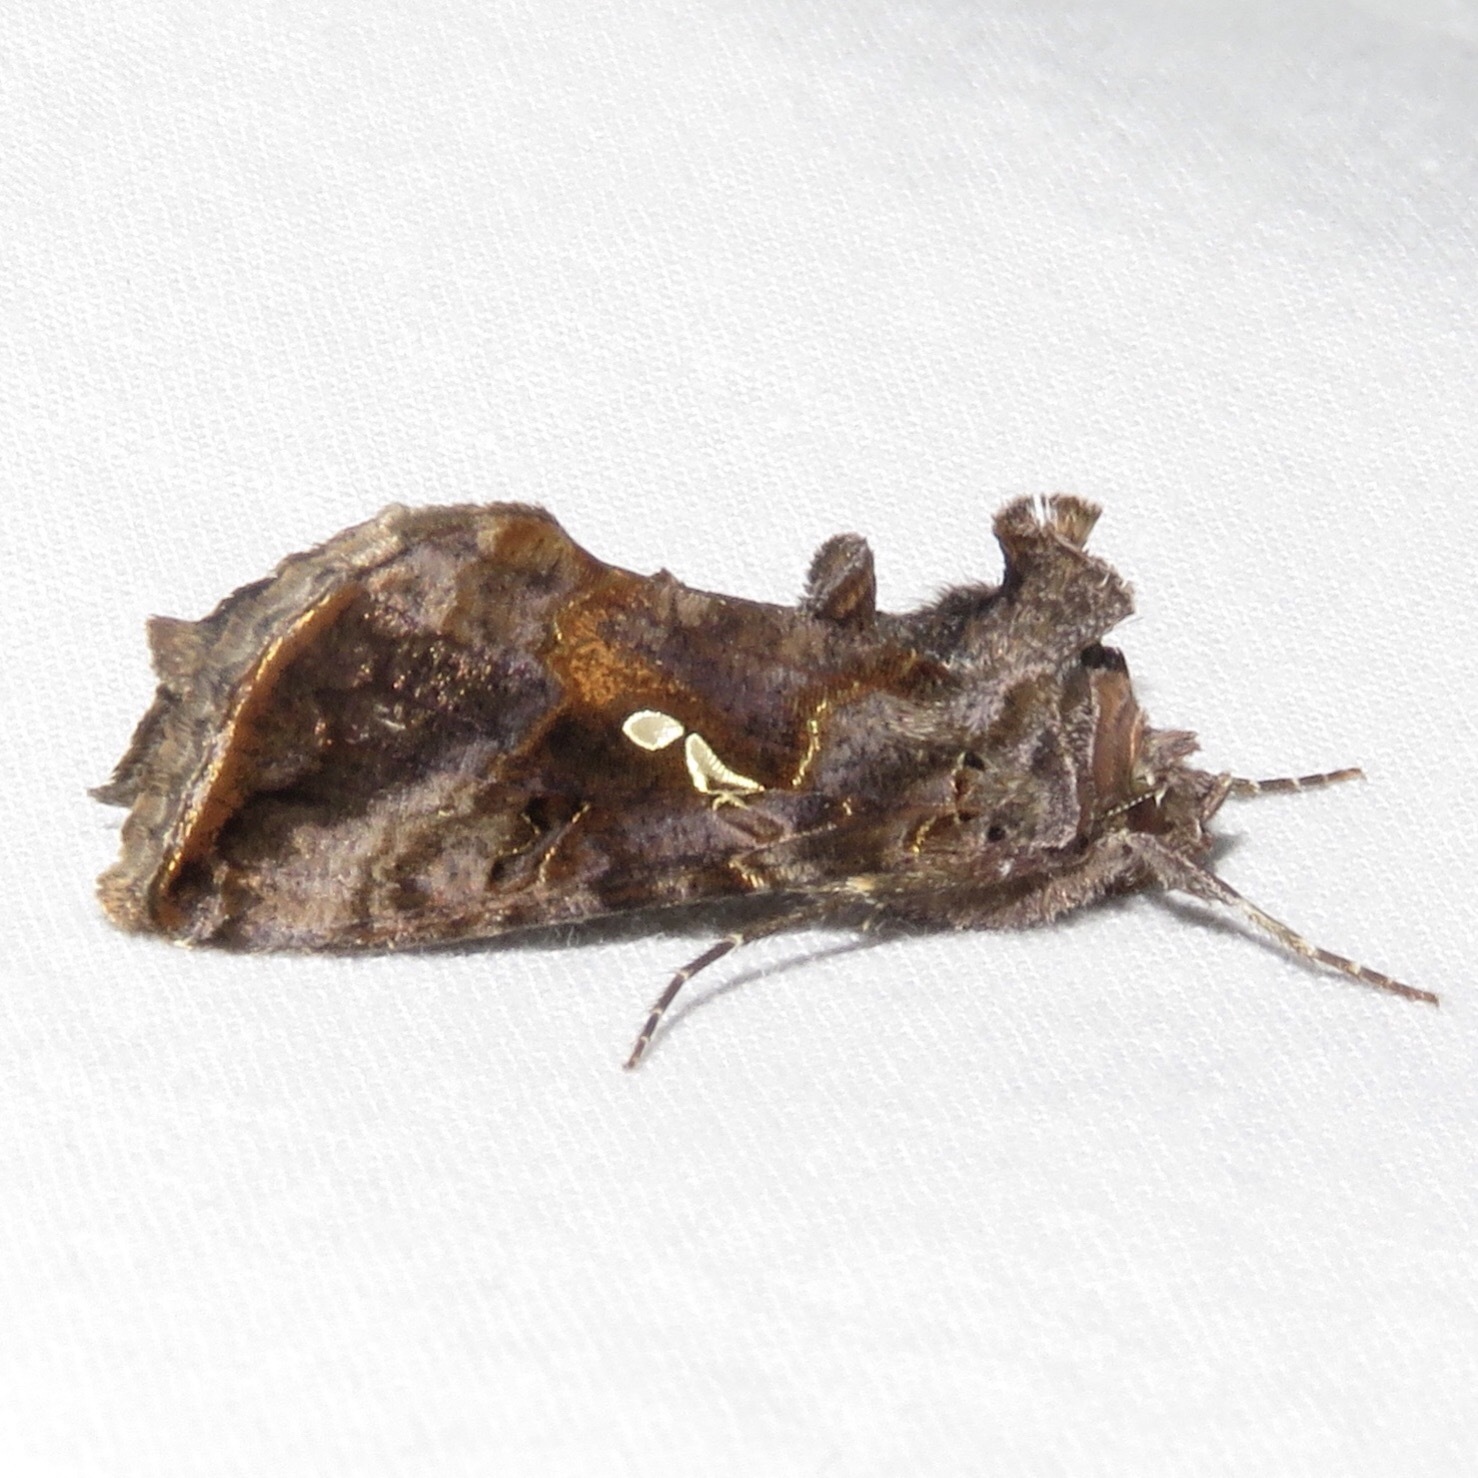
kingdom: Animalia
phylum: Arthropoda
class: Insecta
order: Lepidoptera
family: Noctuidae
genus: Autographa
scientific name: Autographa precationis
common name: Common looper moth
